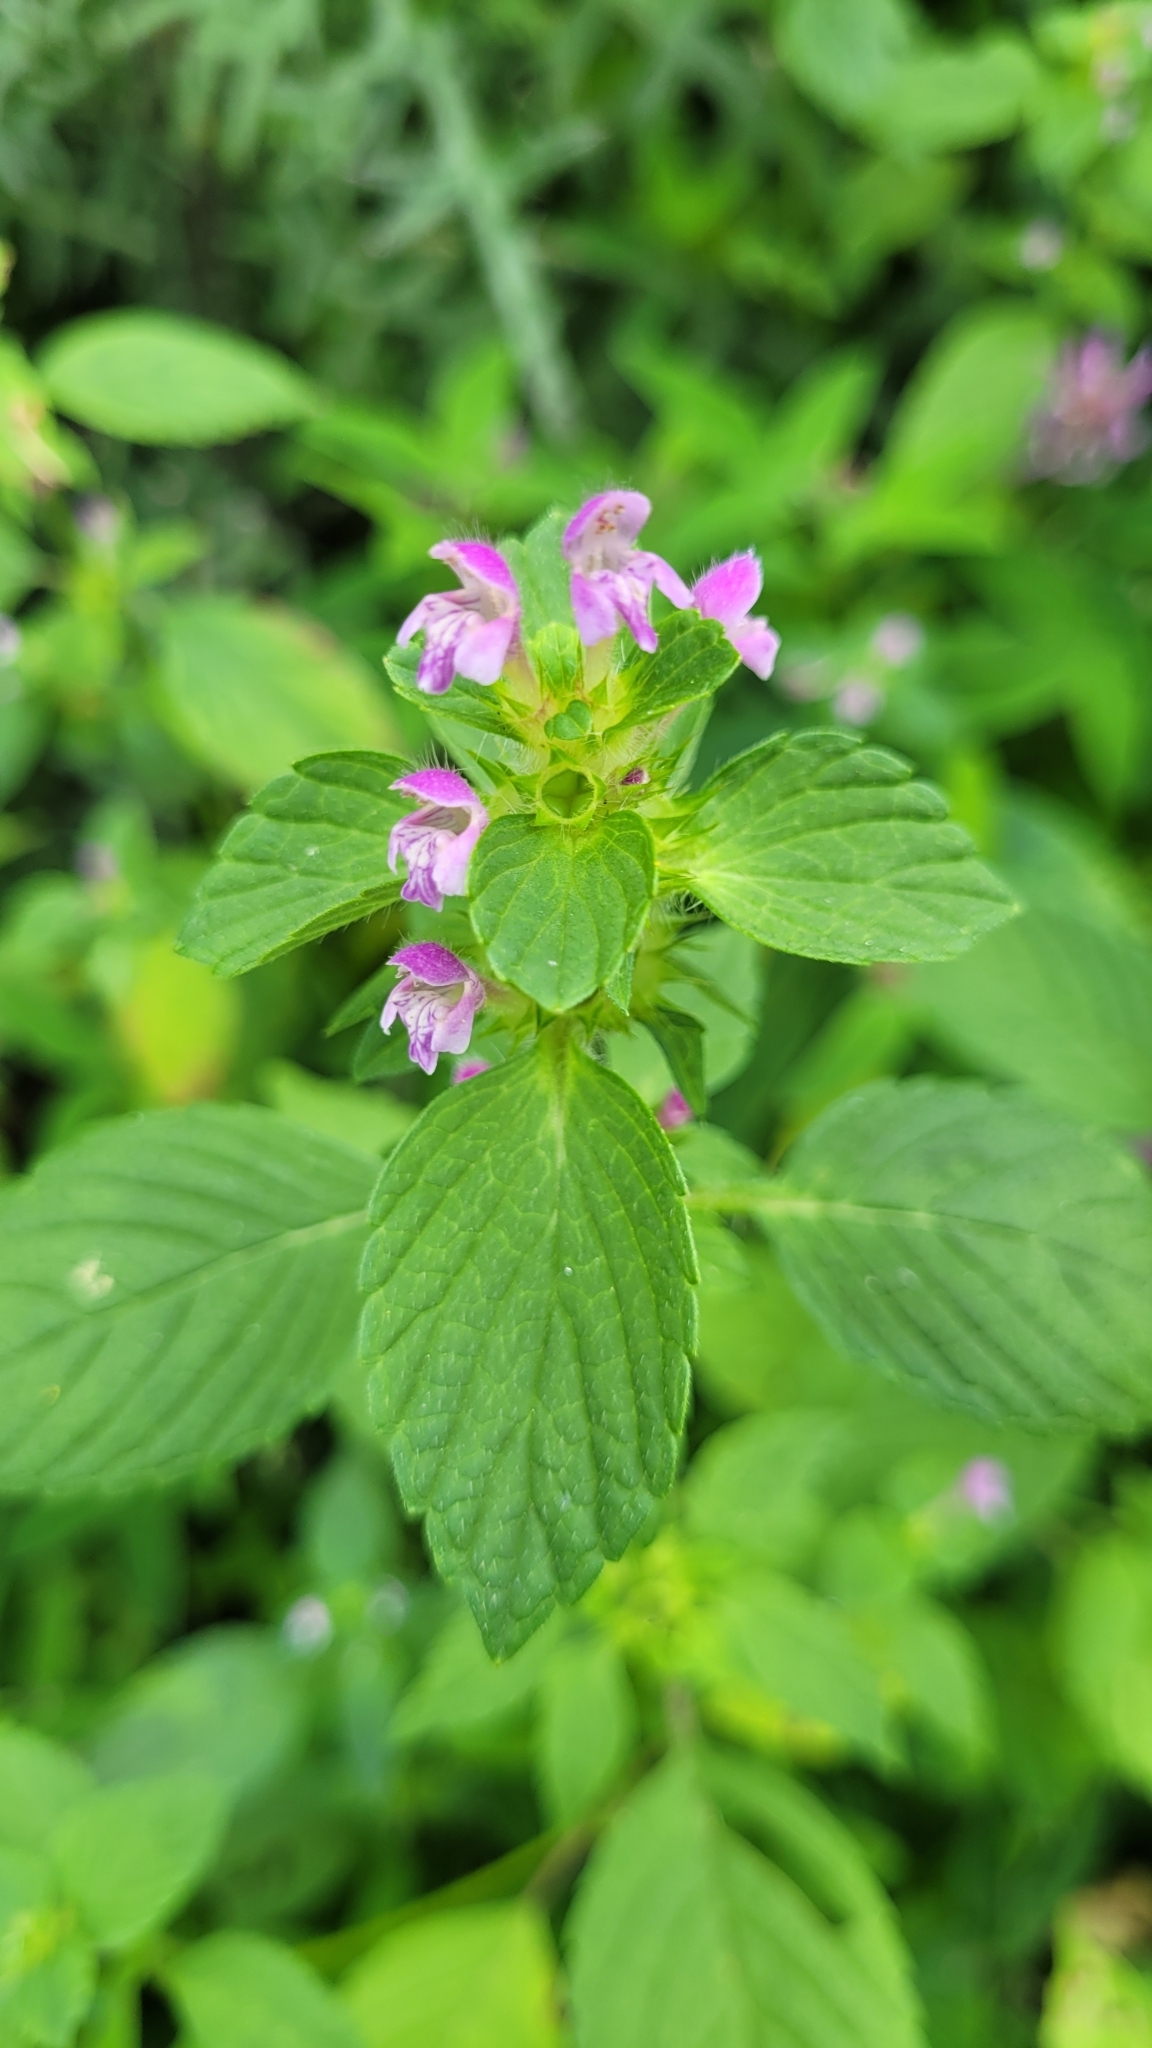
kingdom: Plantae
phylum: Tracheophyta
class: Magnoliopsida
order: Lamiales
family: Lamiaceae
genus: Galeopsis
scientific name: Galeopsis bifida
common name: Bifid hemp-nettle
